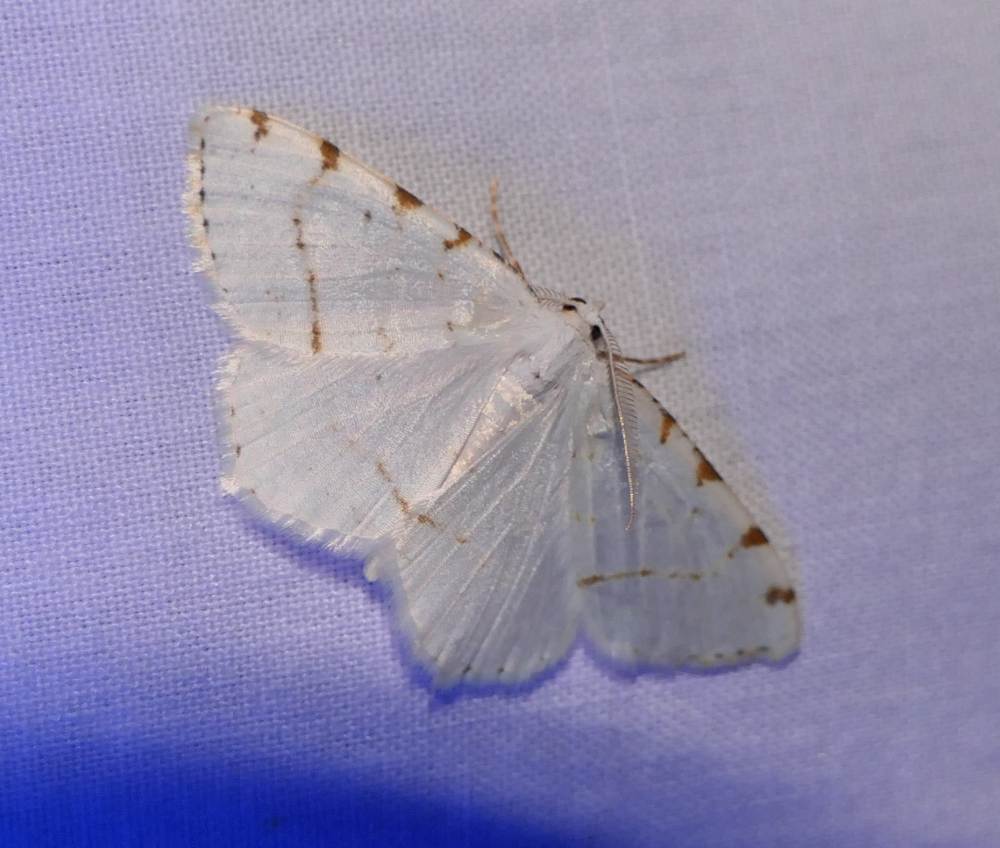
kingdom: Animalia
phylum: Arthropoda
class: Insecta
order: Lepidoptera
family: Geometridae
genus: Macaria
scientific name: Macaria pustularia
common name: Lesser maple spanworm moth
